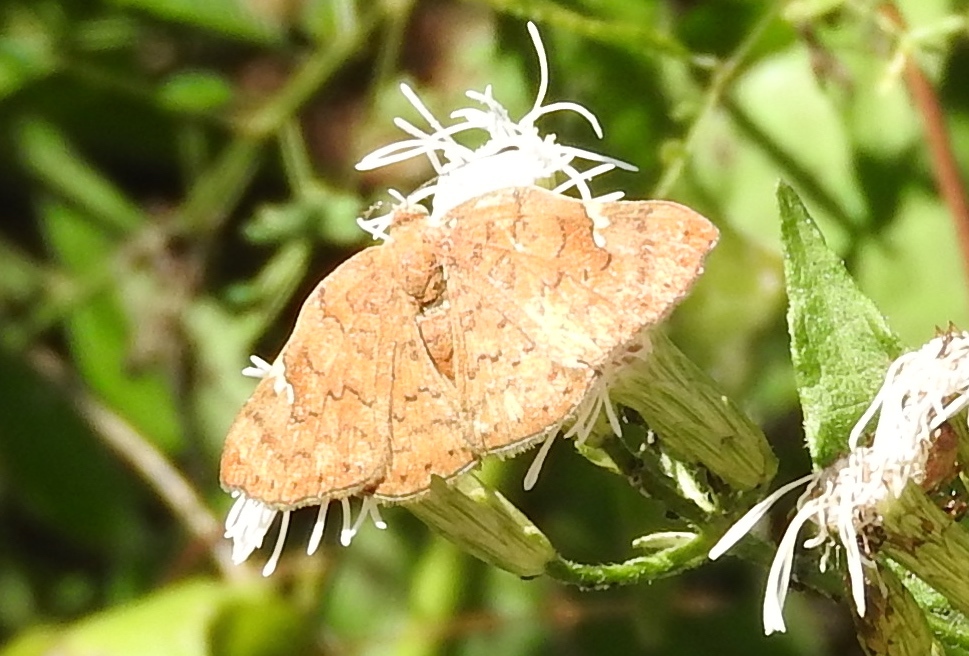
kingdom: Animalia
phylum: Arthropoda
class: Insecta
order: Lepidoptera
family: Riodinidae
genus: Curvie
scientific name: Curvie emesia
